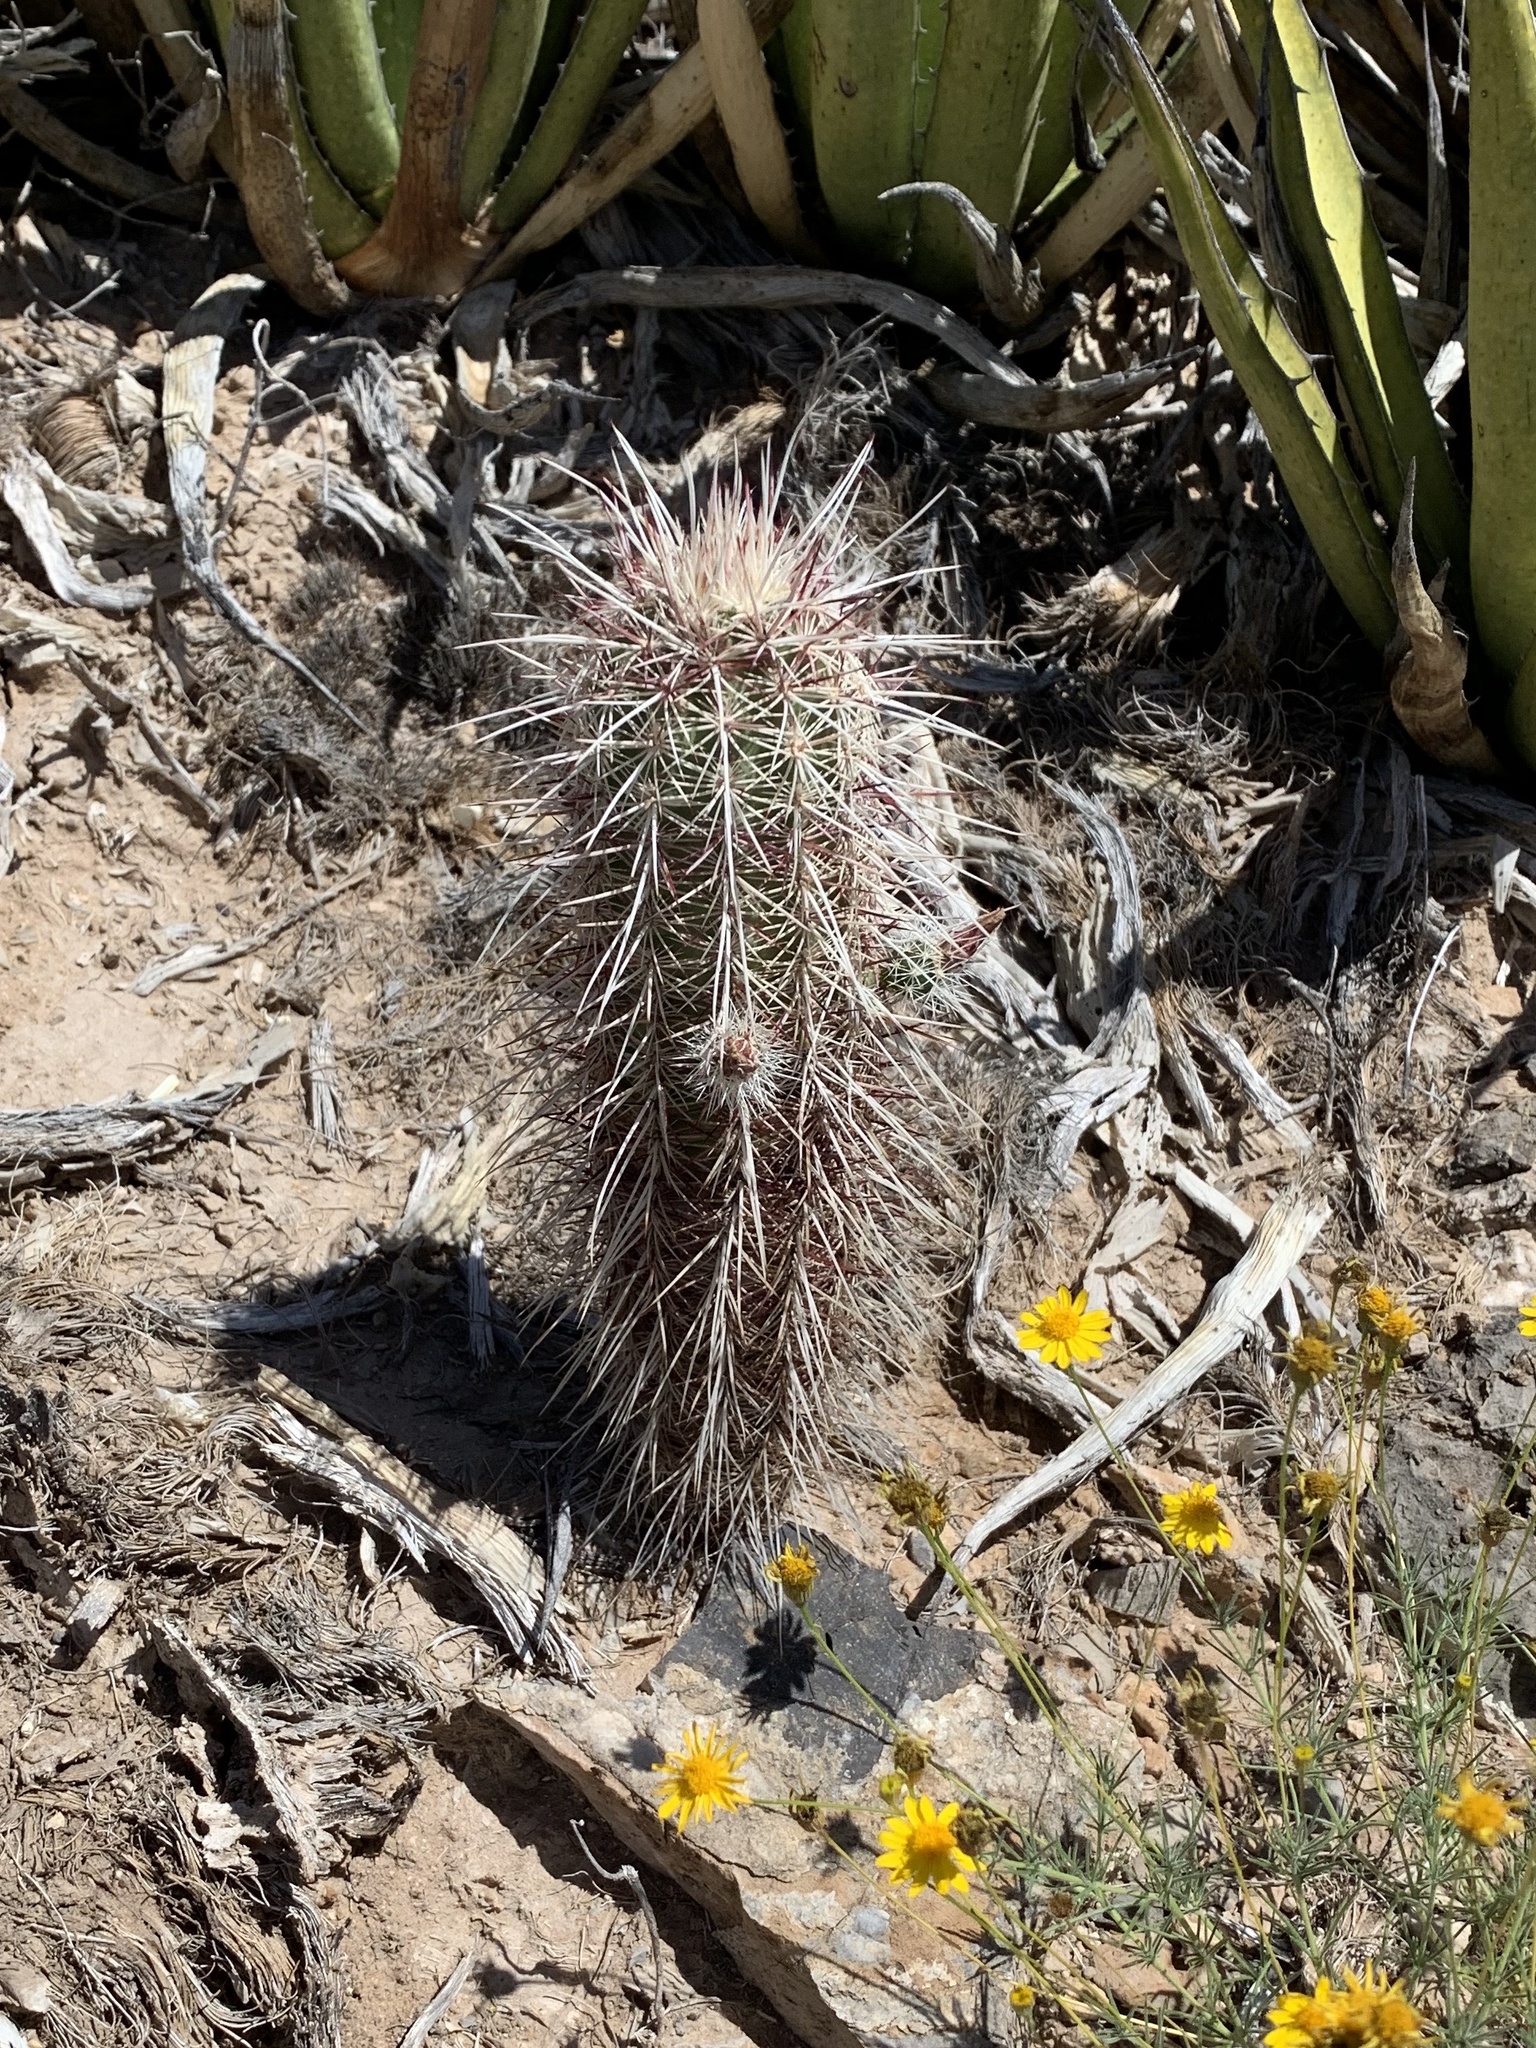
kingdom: Plantae
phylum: Tracheophyta
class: Magnoliopsida
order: Caryophyllales
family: Cactaceae
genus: Echinocereus
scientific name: Echinocereus viridiflorus
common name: Nylon hedgehog cactus
